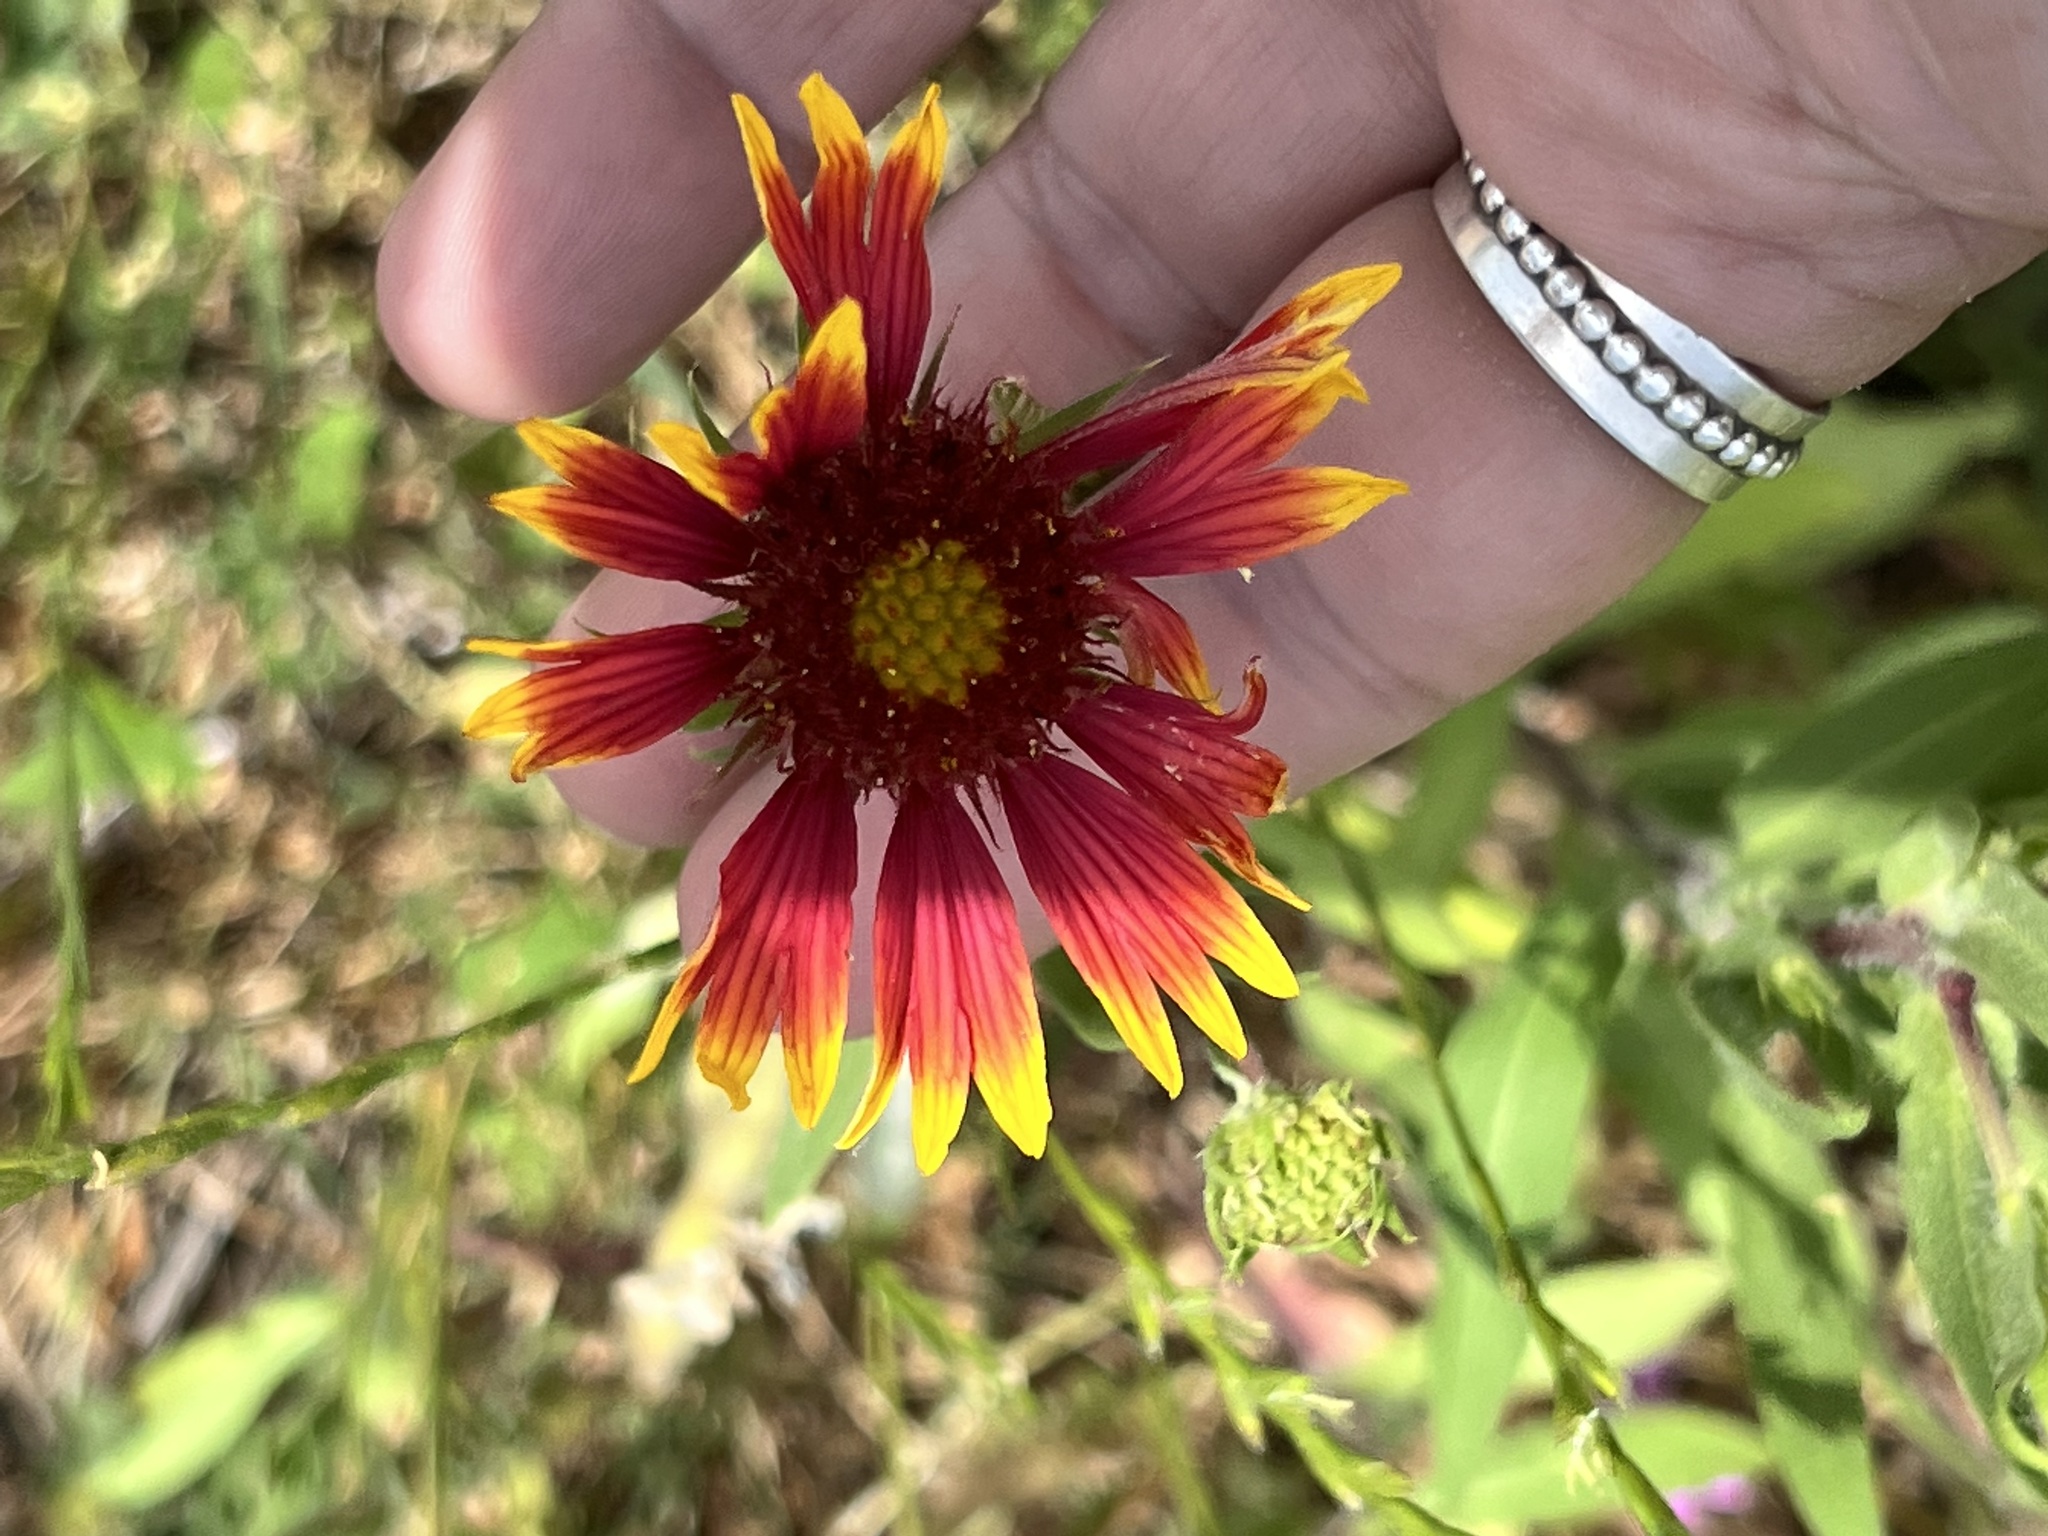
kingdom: Plantae
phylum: Tracheophyta
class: Magnoliopsida
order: Asterales
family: Asteraceae
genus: Gaillardia
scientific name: Gaillardia pulchella
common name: Firewheel
